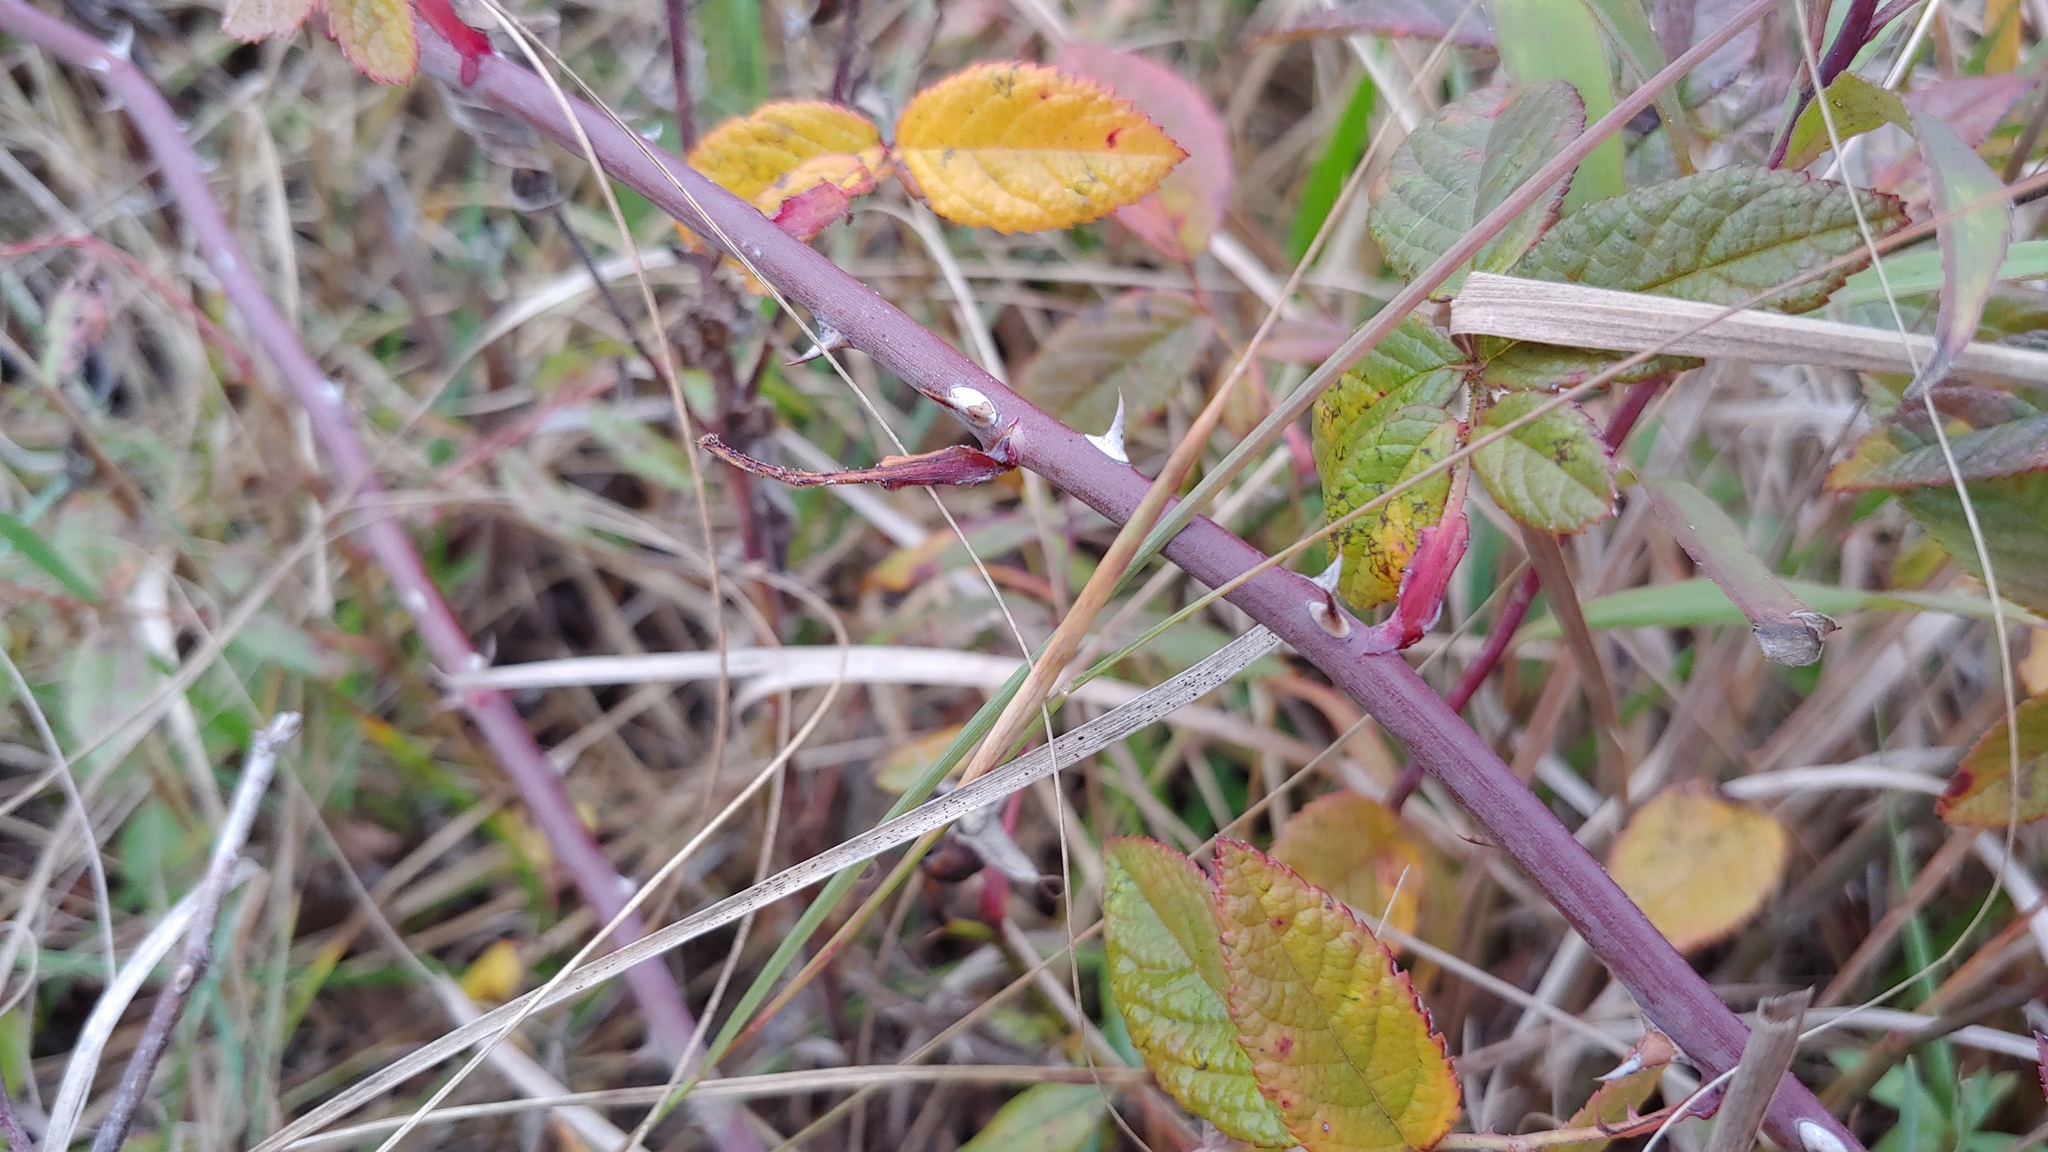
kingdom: Plantae
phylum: Tracheophyta
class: Magnoliopsida
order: Rosales
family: Rosaceae
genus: Rosa
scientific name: Rosa setigera
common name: Prairie rose
